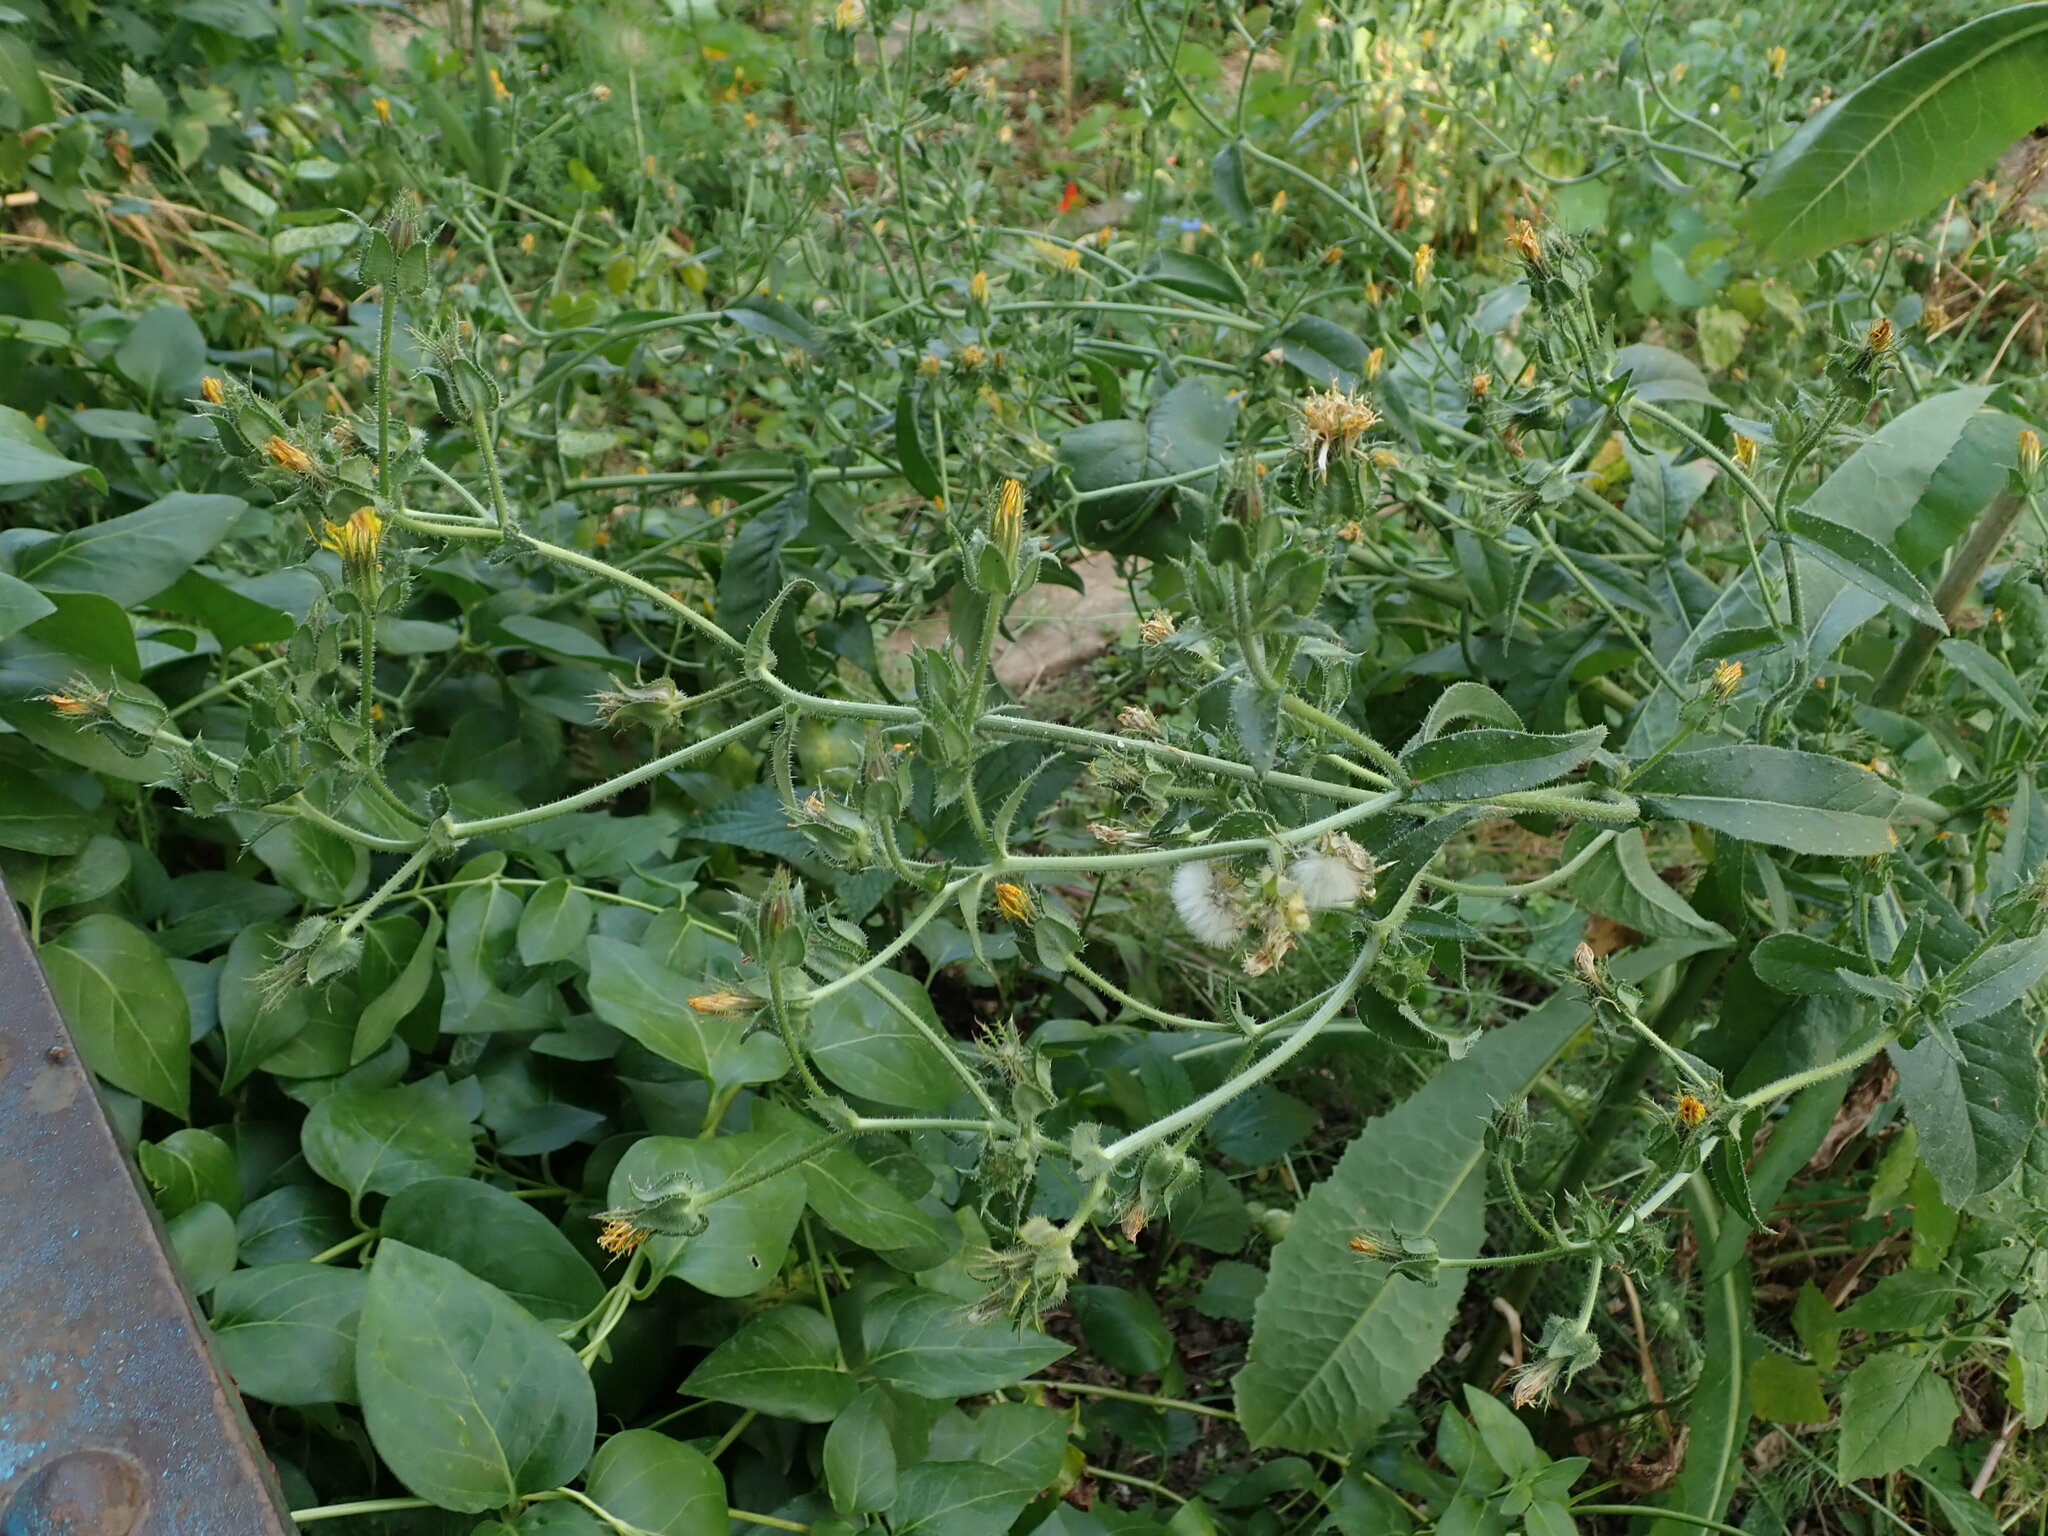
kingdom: Plantae
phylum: Tracheophyta
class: Magnoliopsida
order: Asterales
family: Asteraceae
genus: Helminthotheca
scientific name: Helminthotheca echioides
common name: Ox-tongue
